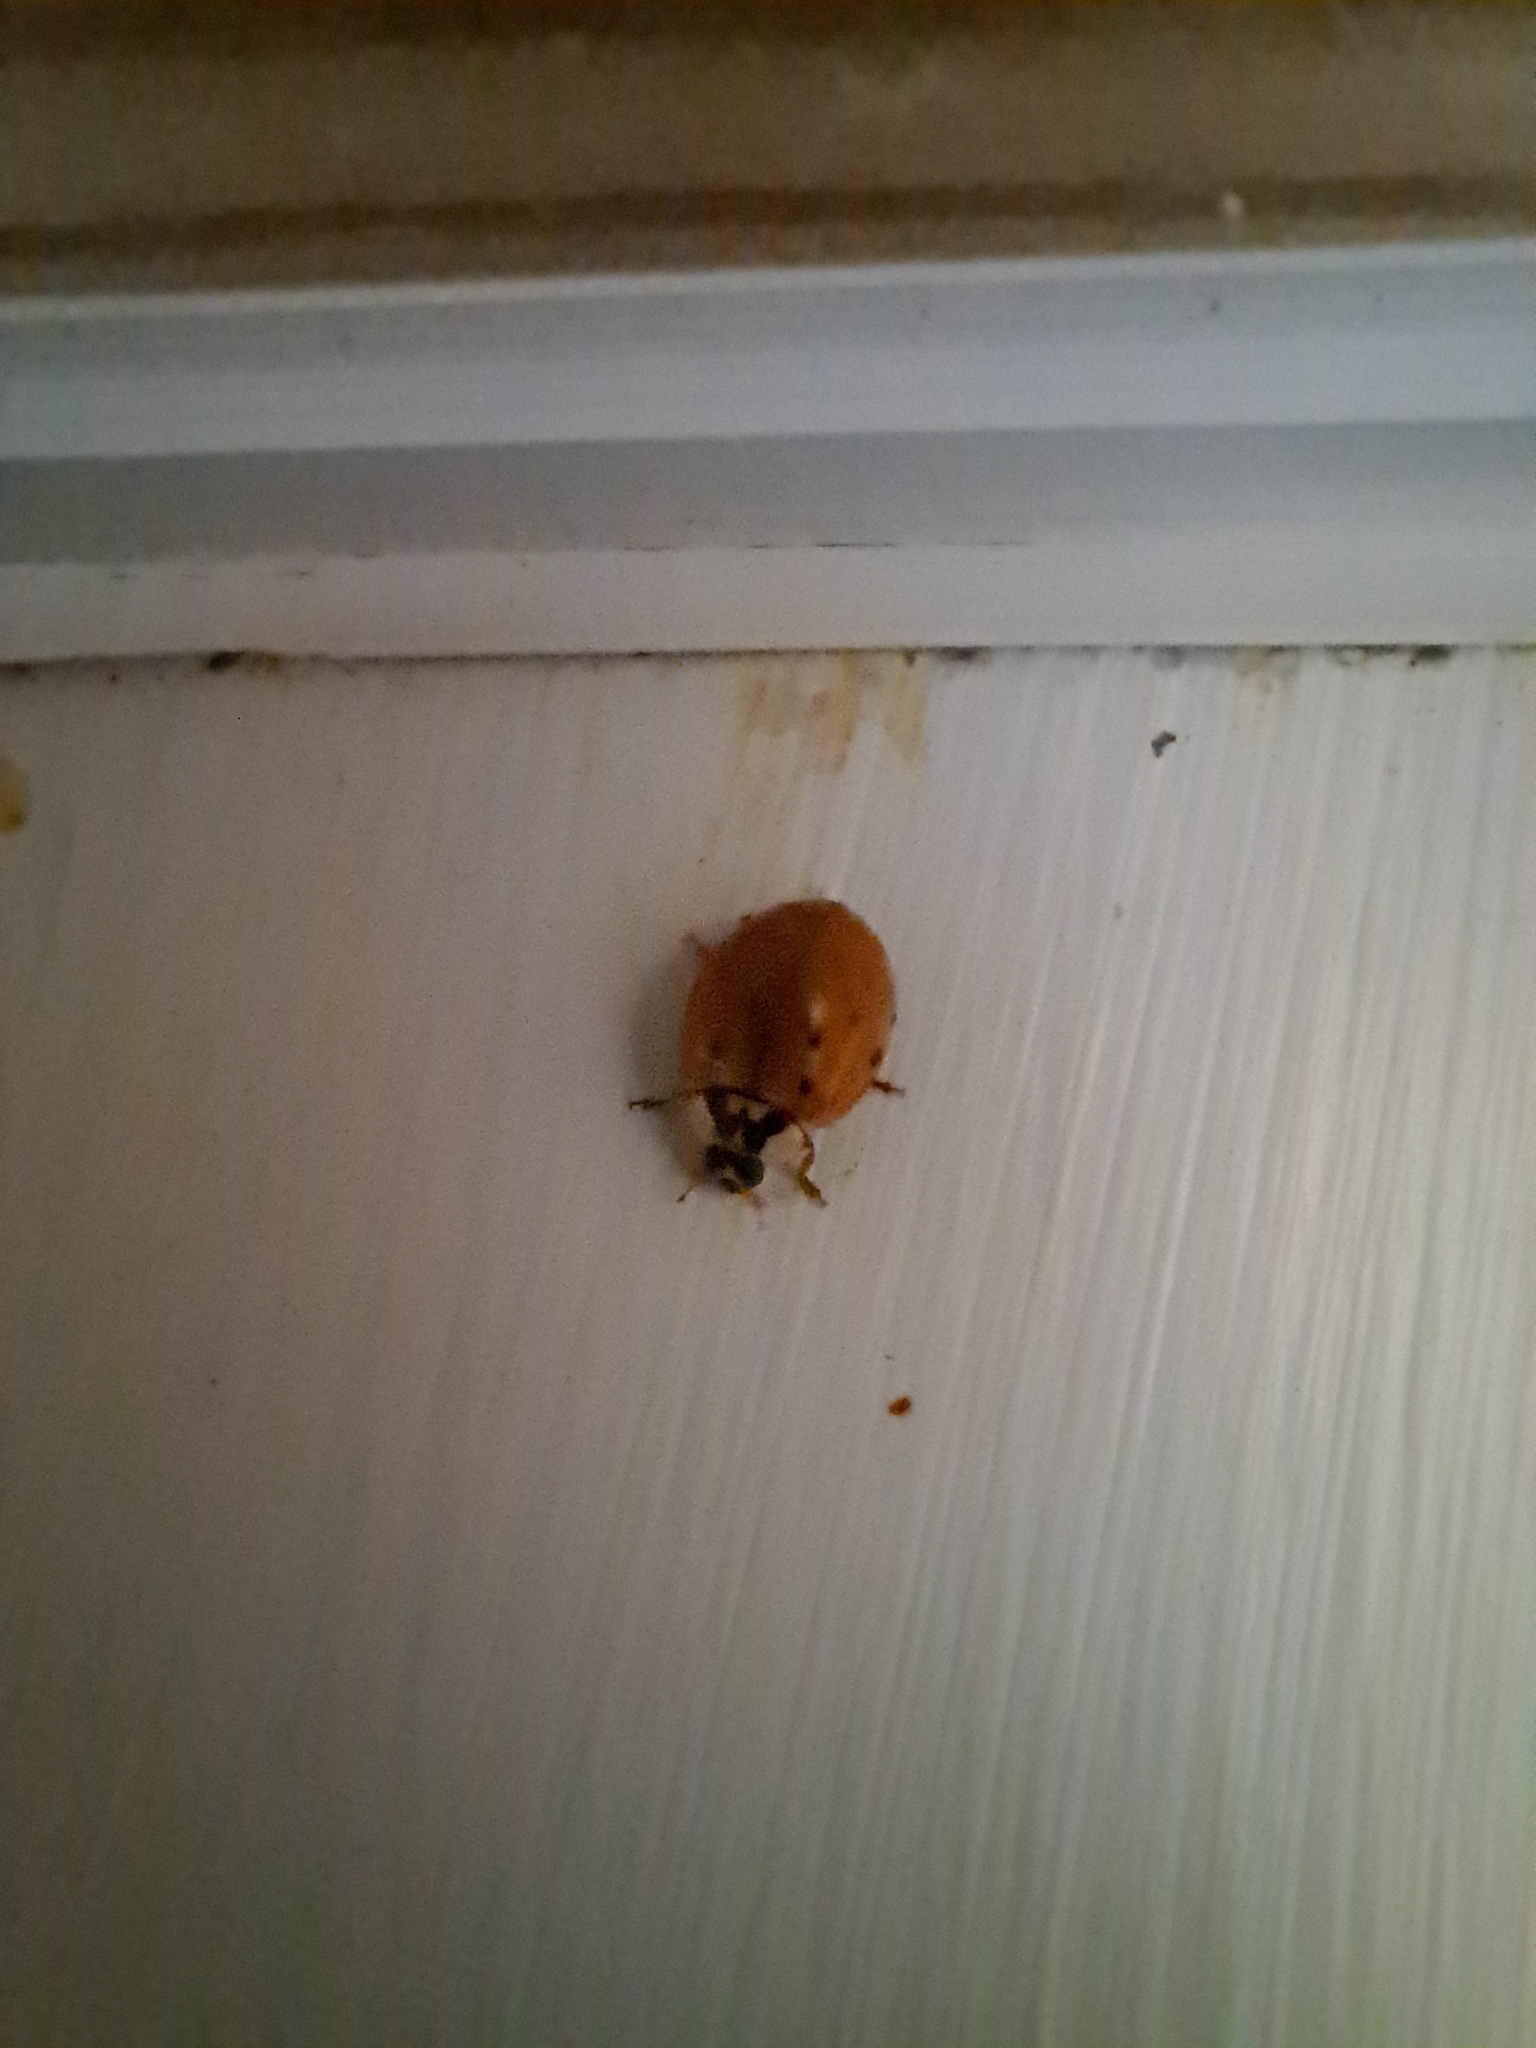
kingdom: Animalia
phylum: Arthropoda
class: Insecta
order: Coleoptera
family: Coccinellidae
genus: Harmonia
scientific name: Harmonia axyridis
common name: Harlequin ladybird
